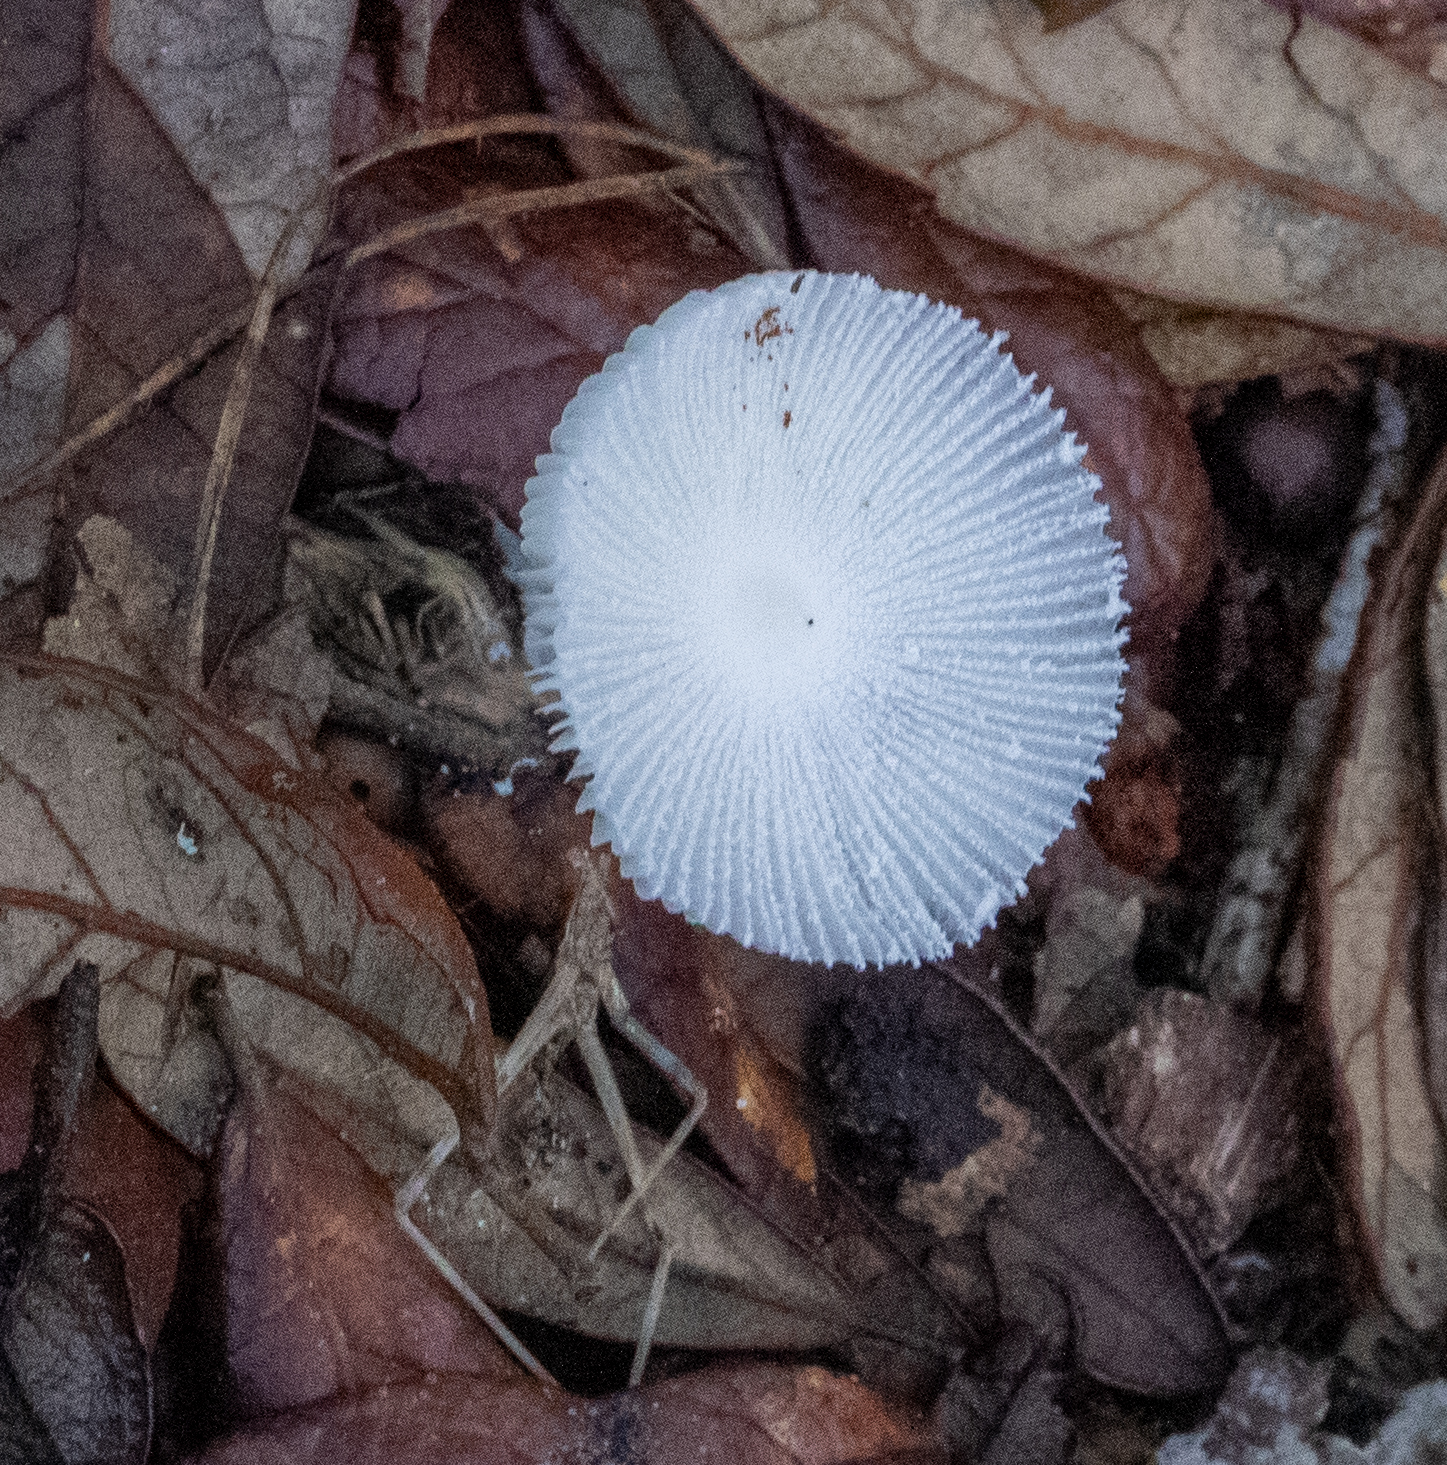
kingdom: Fungi
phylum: Basidiomycota
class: Agaricomycetes
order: Agaricales
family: Agaricaceae
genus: Leucocoprinus
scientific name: Leucocoprinus fragilissimus
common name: Fragile dapperling
